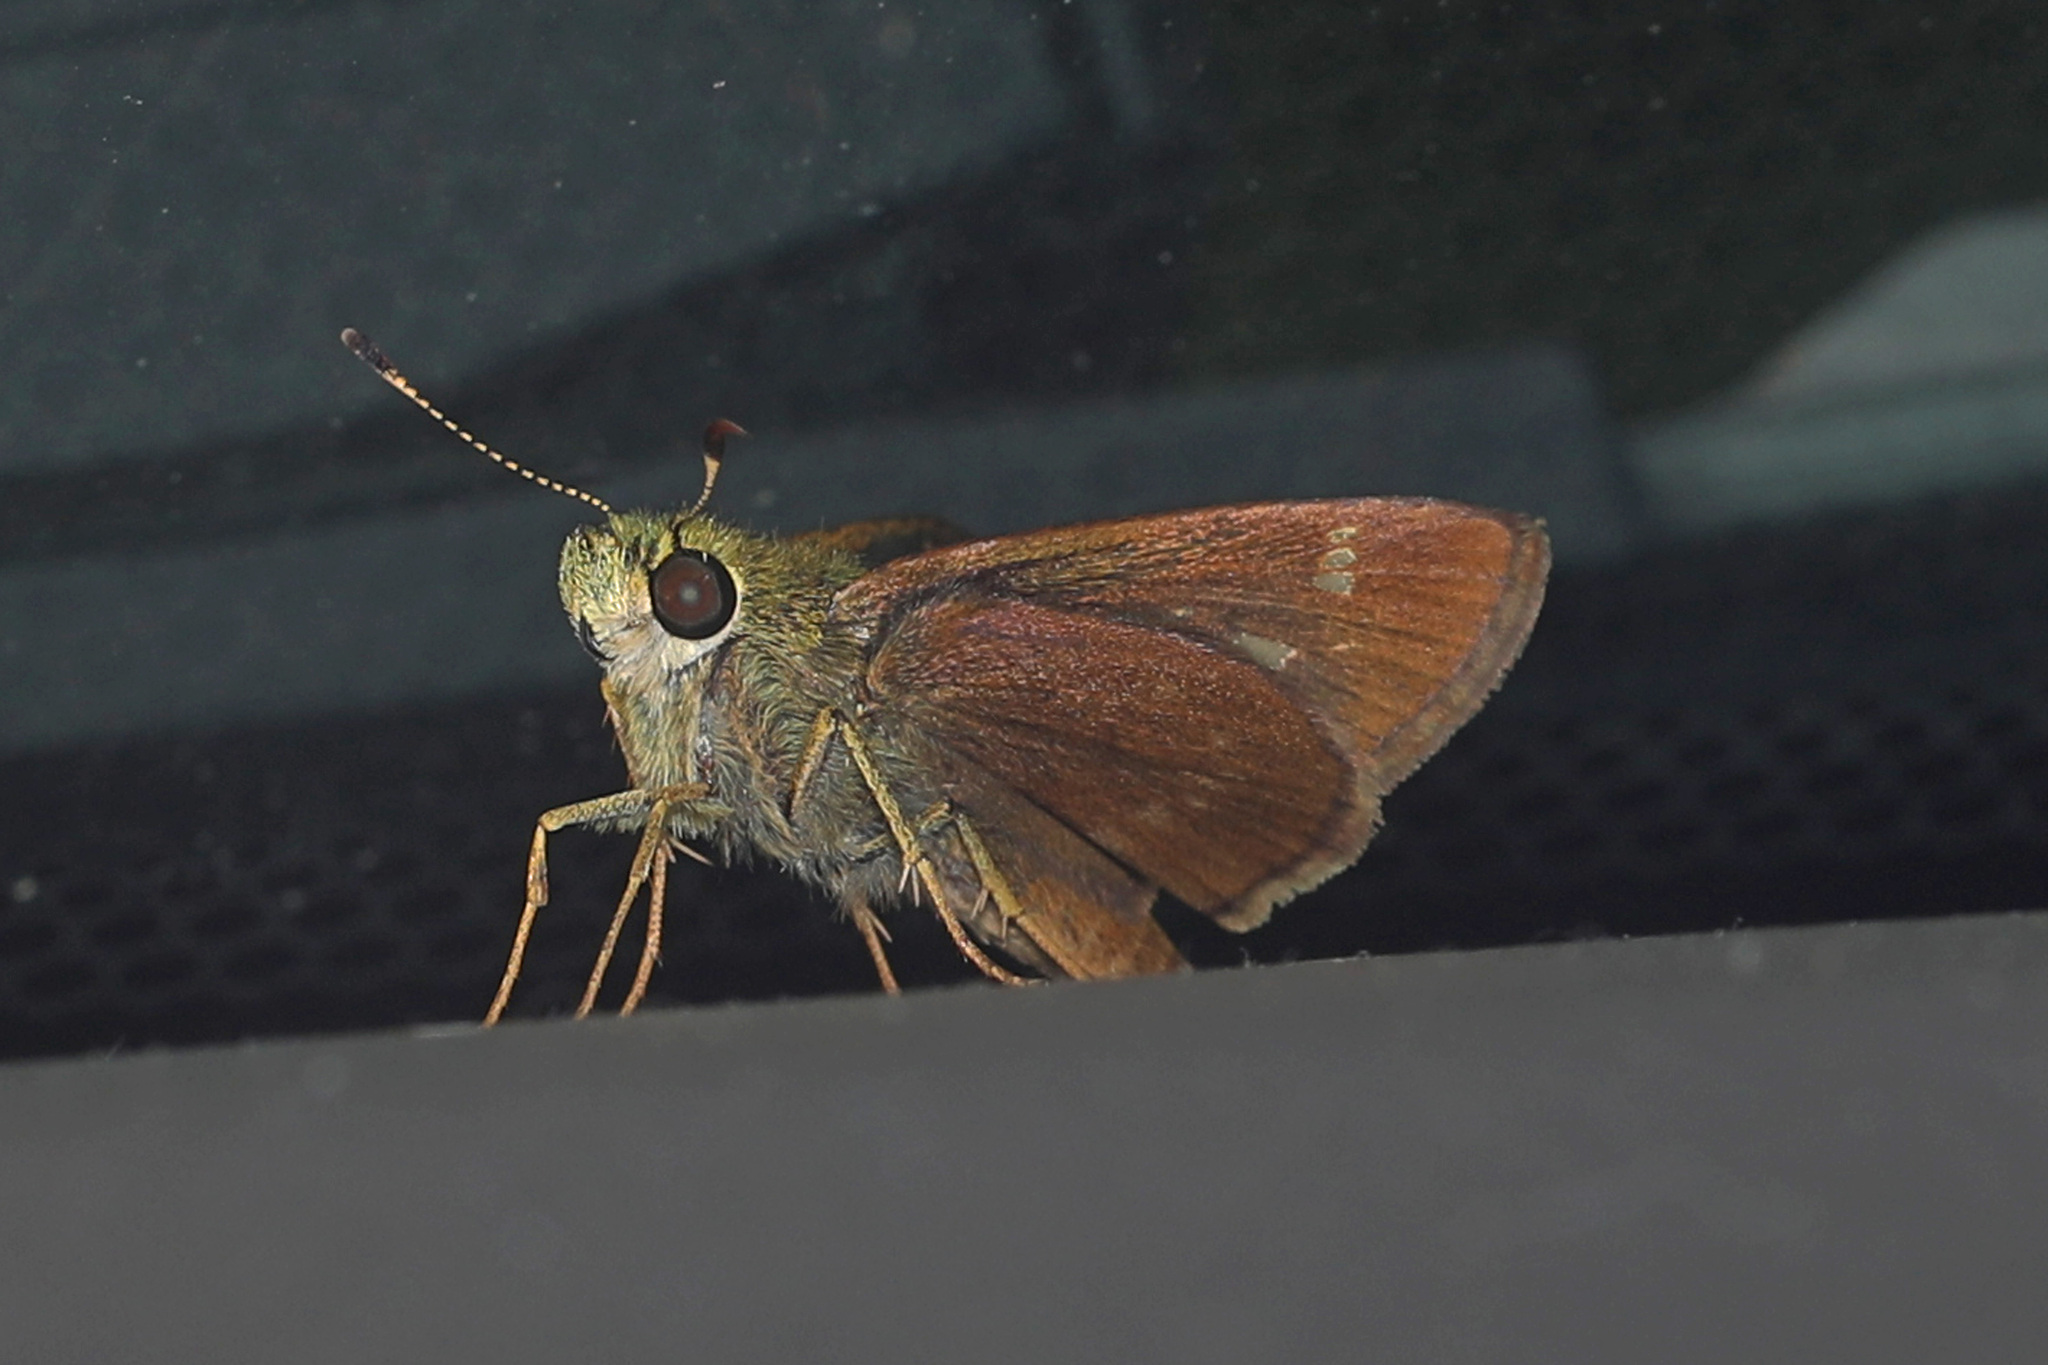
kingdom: Animalia
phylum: Arthropoda
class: Insecta
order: Lepidoptera
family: Hesperiidae
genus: Vernia
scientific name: Vernia verna
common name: Little glassywing
